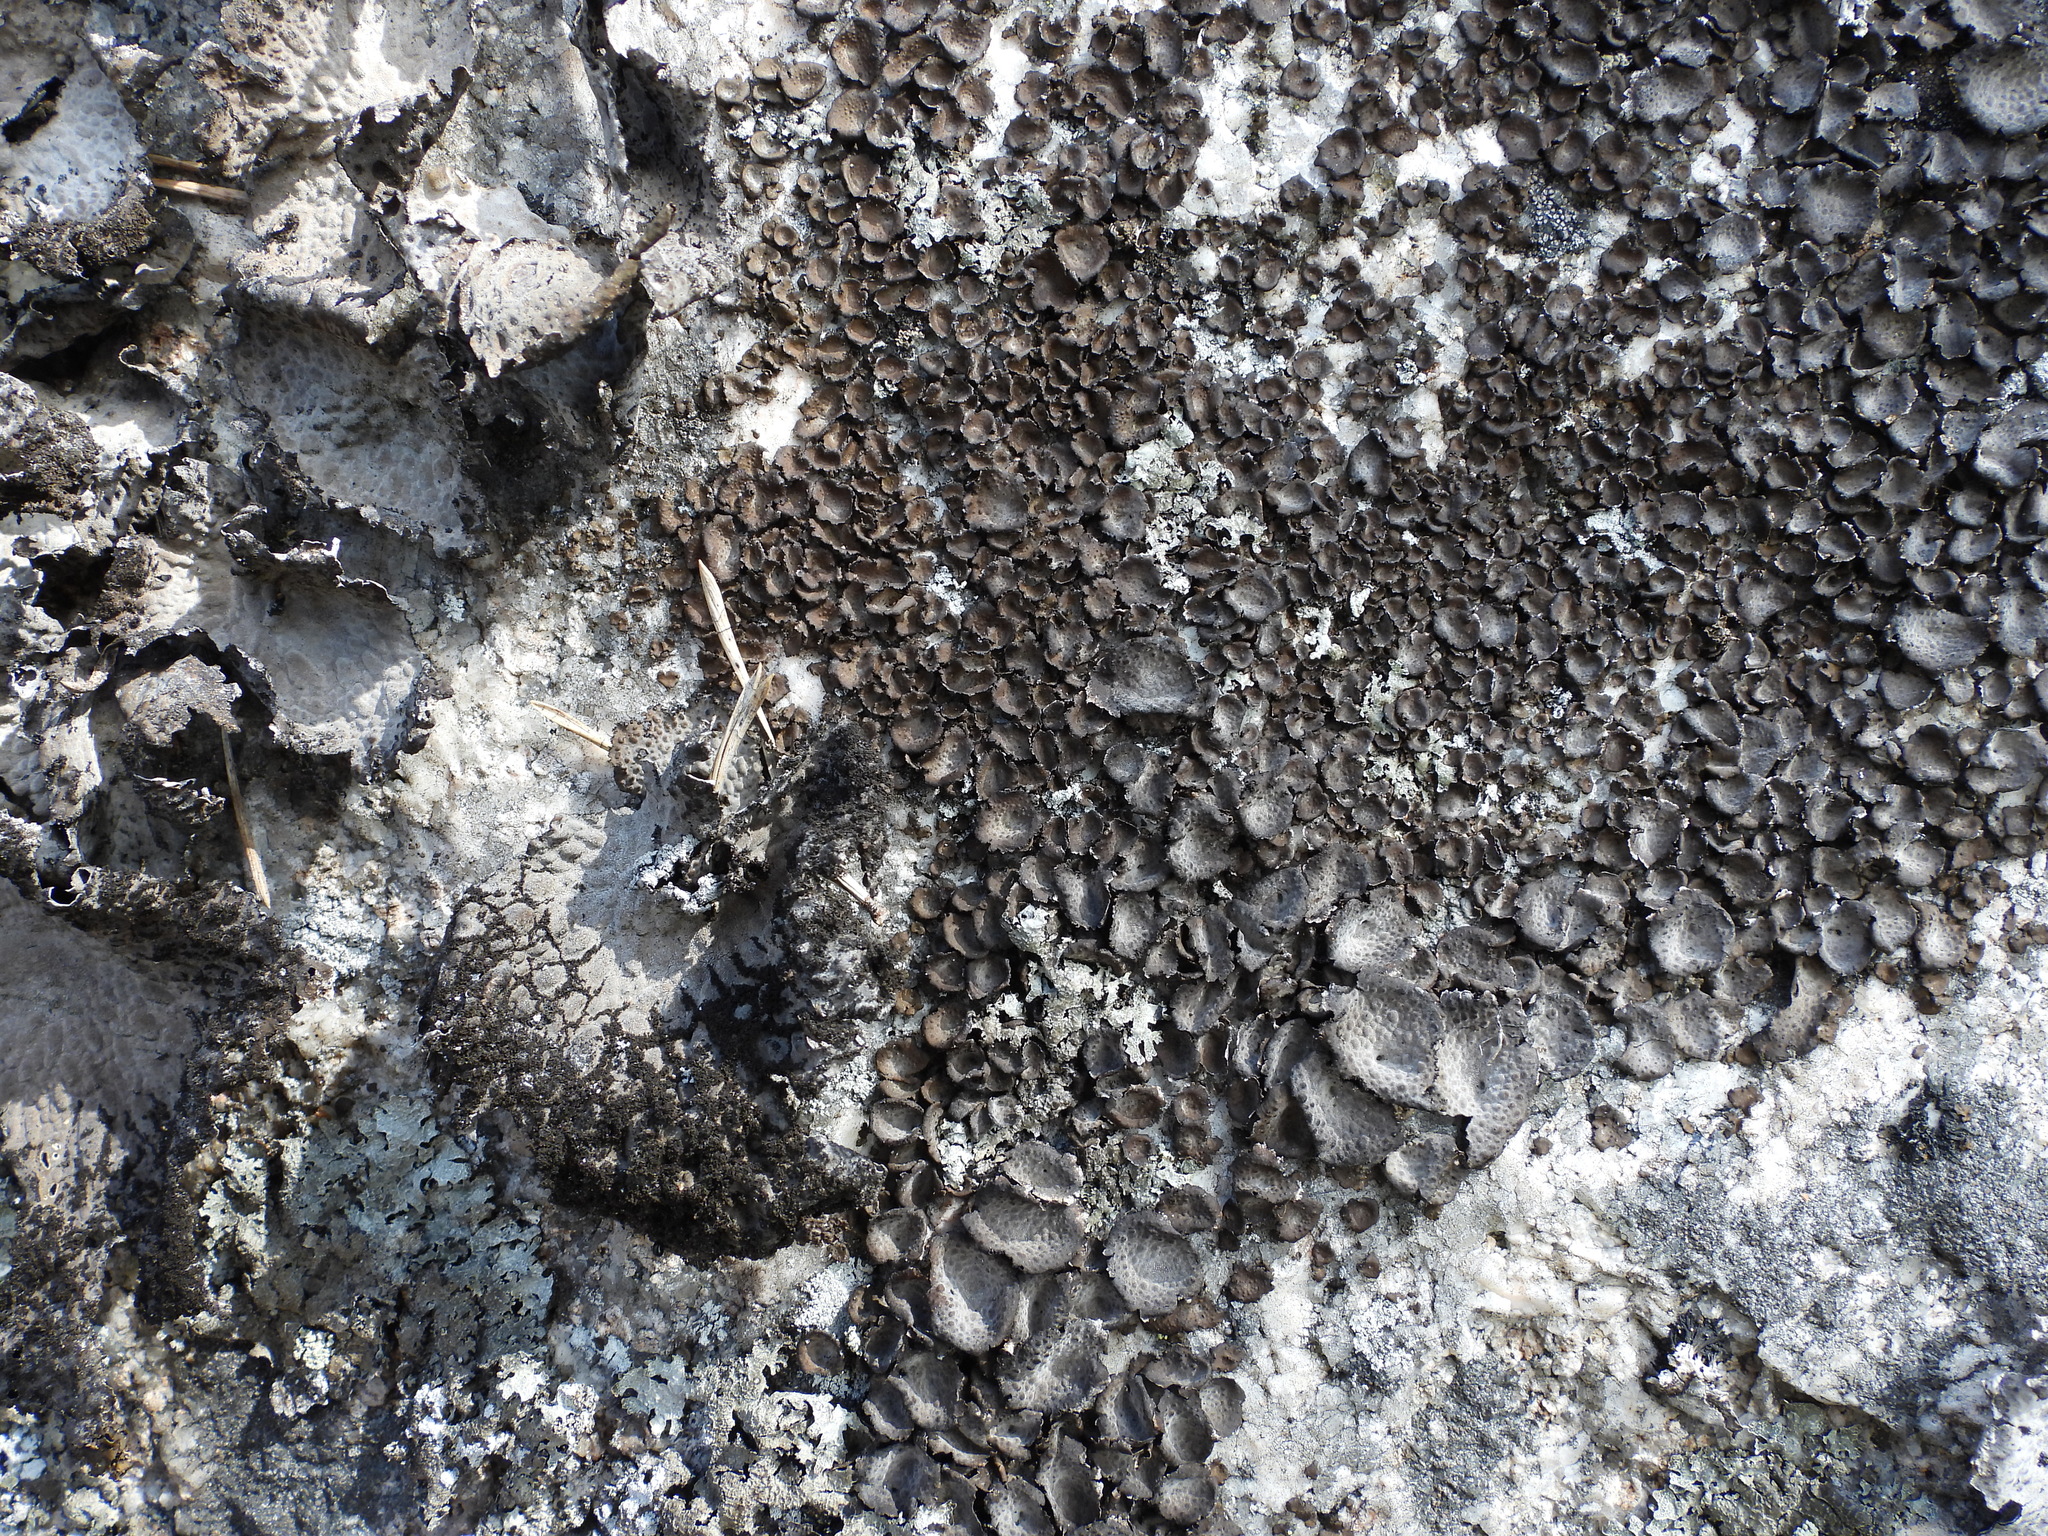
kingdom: Fungi
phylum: Ascomycota
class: Lecanoromycetes
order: Umbilicariales
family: Umbilicariaceae
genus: Lasallia
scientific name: Lasallia pustulata
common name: Blistered toadskin lichen
